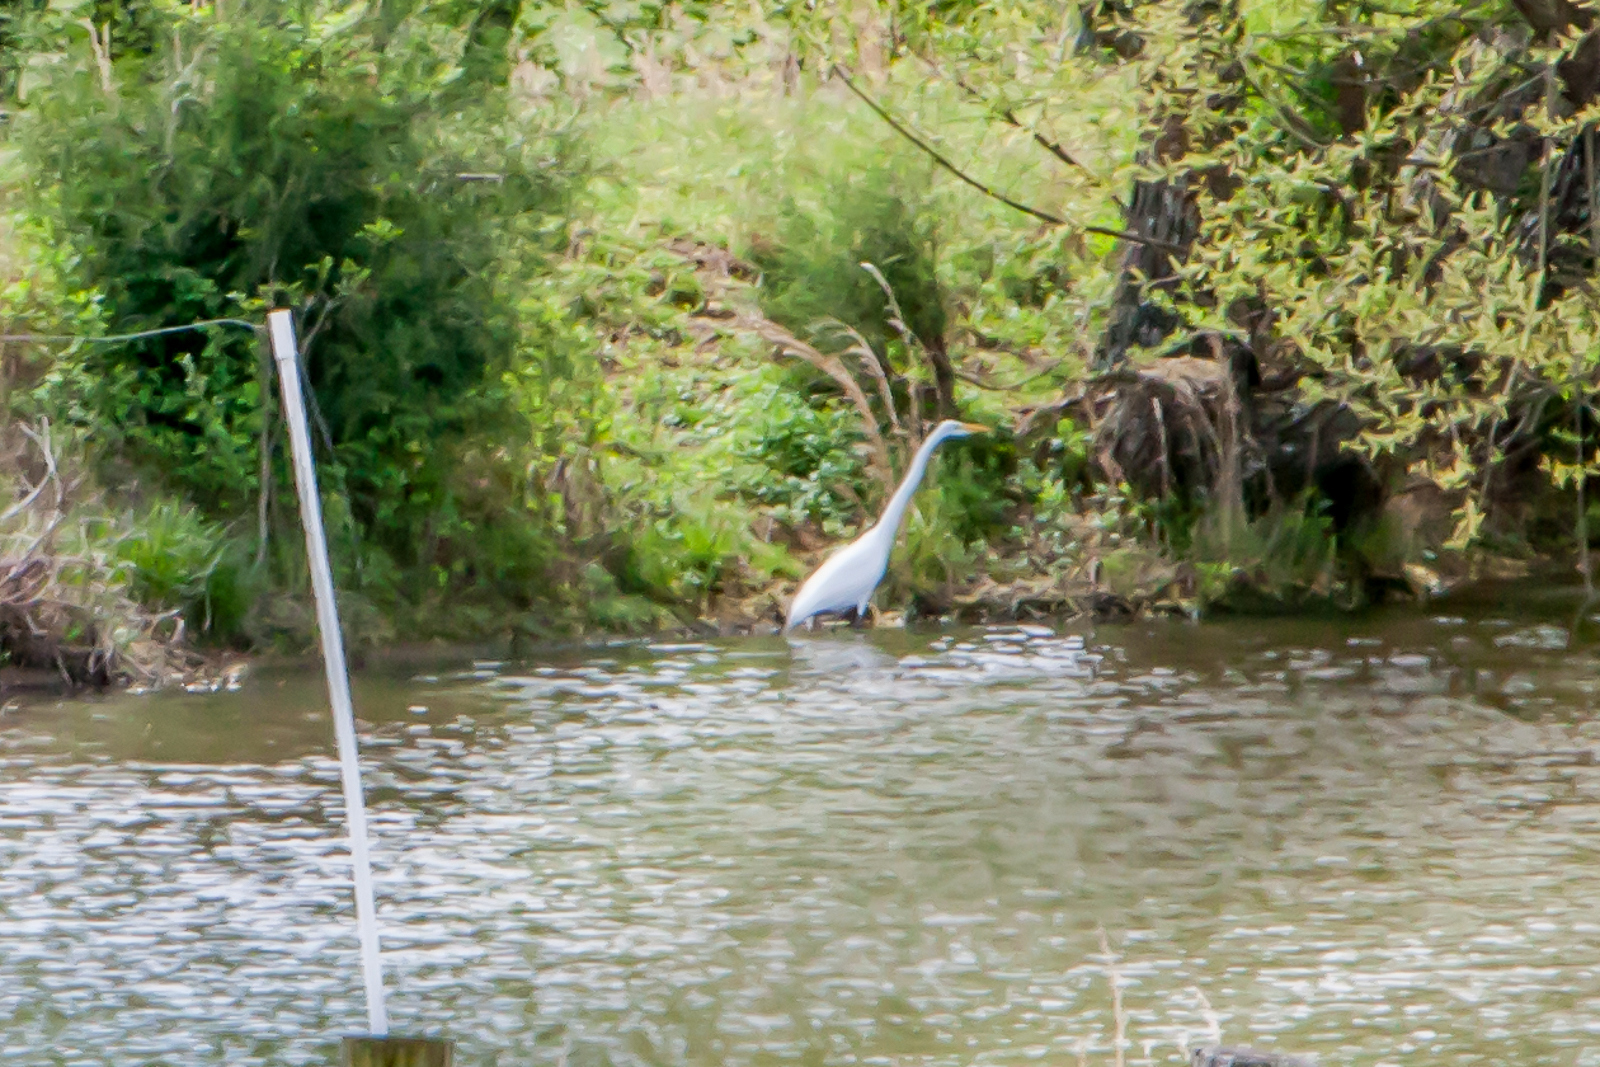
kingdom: Animalia
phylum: Chordata
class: Aves
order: Pelecaniformes
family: Ardeidae
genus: Ardea
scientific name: Ardea alba
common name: Great egret
